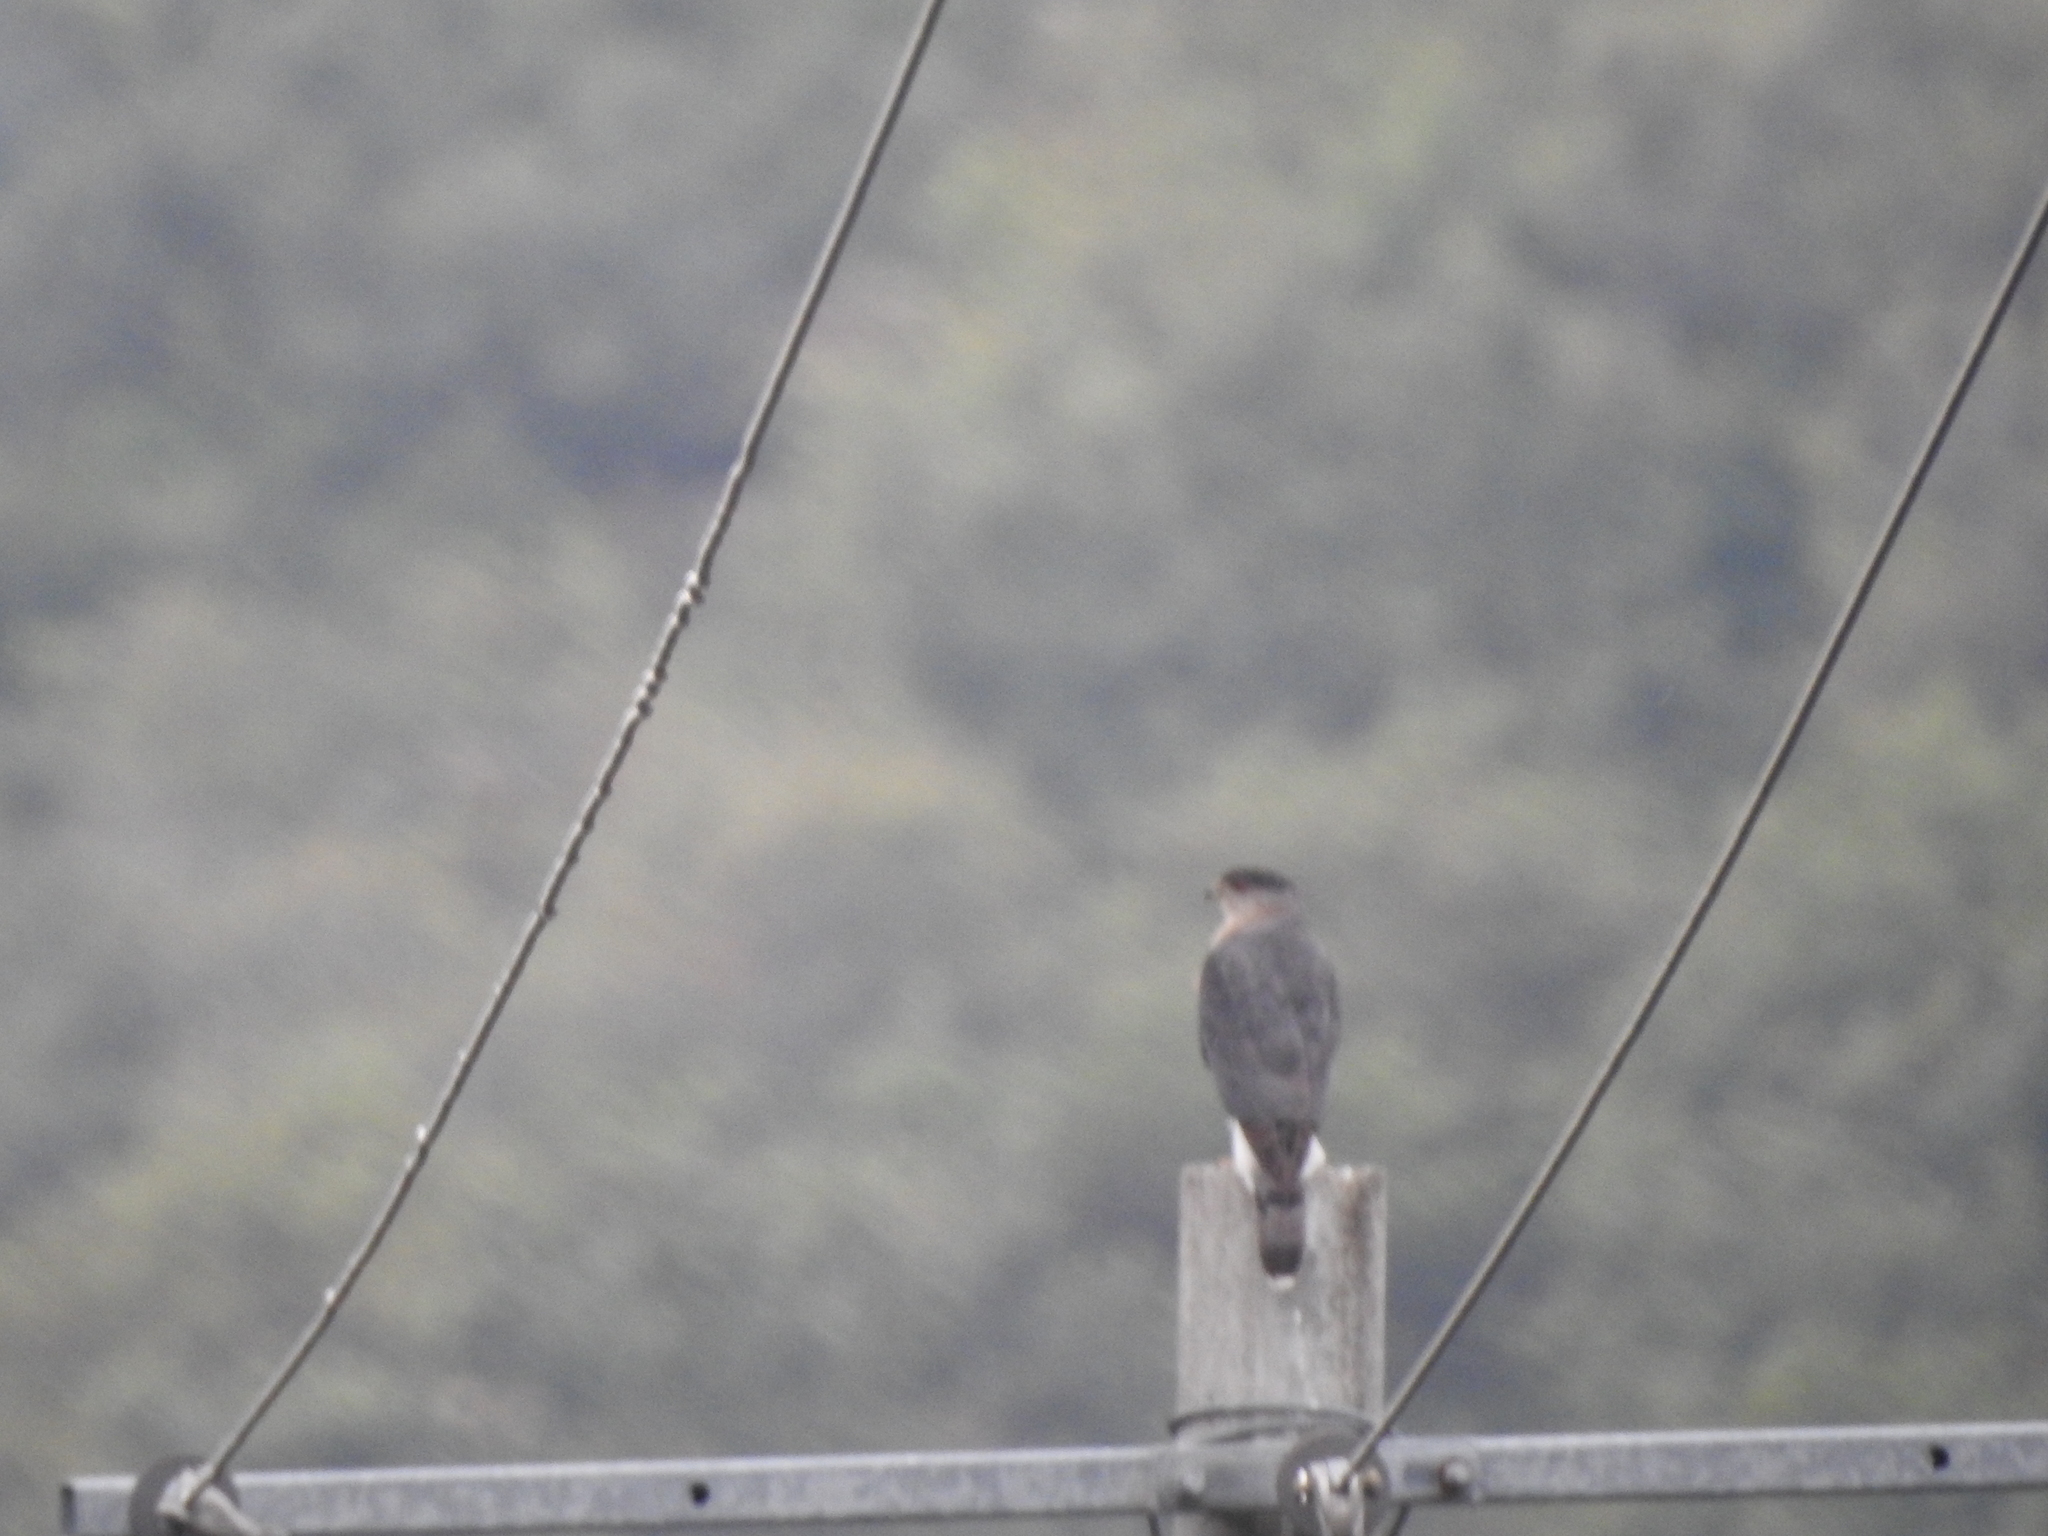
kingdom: Animalia
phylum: Chordata
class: Aves
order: Accipitriformes
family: Accipitridae
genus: Accipiter
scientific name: Accipiter cooperii
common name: Cooper's hawk
